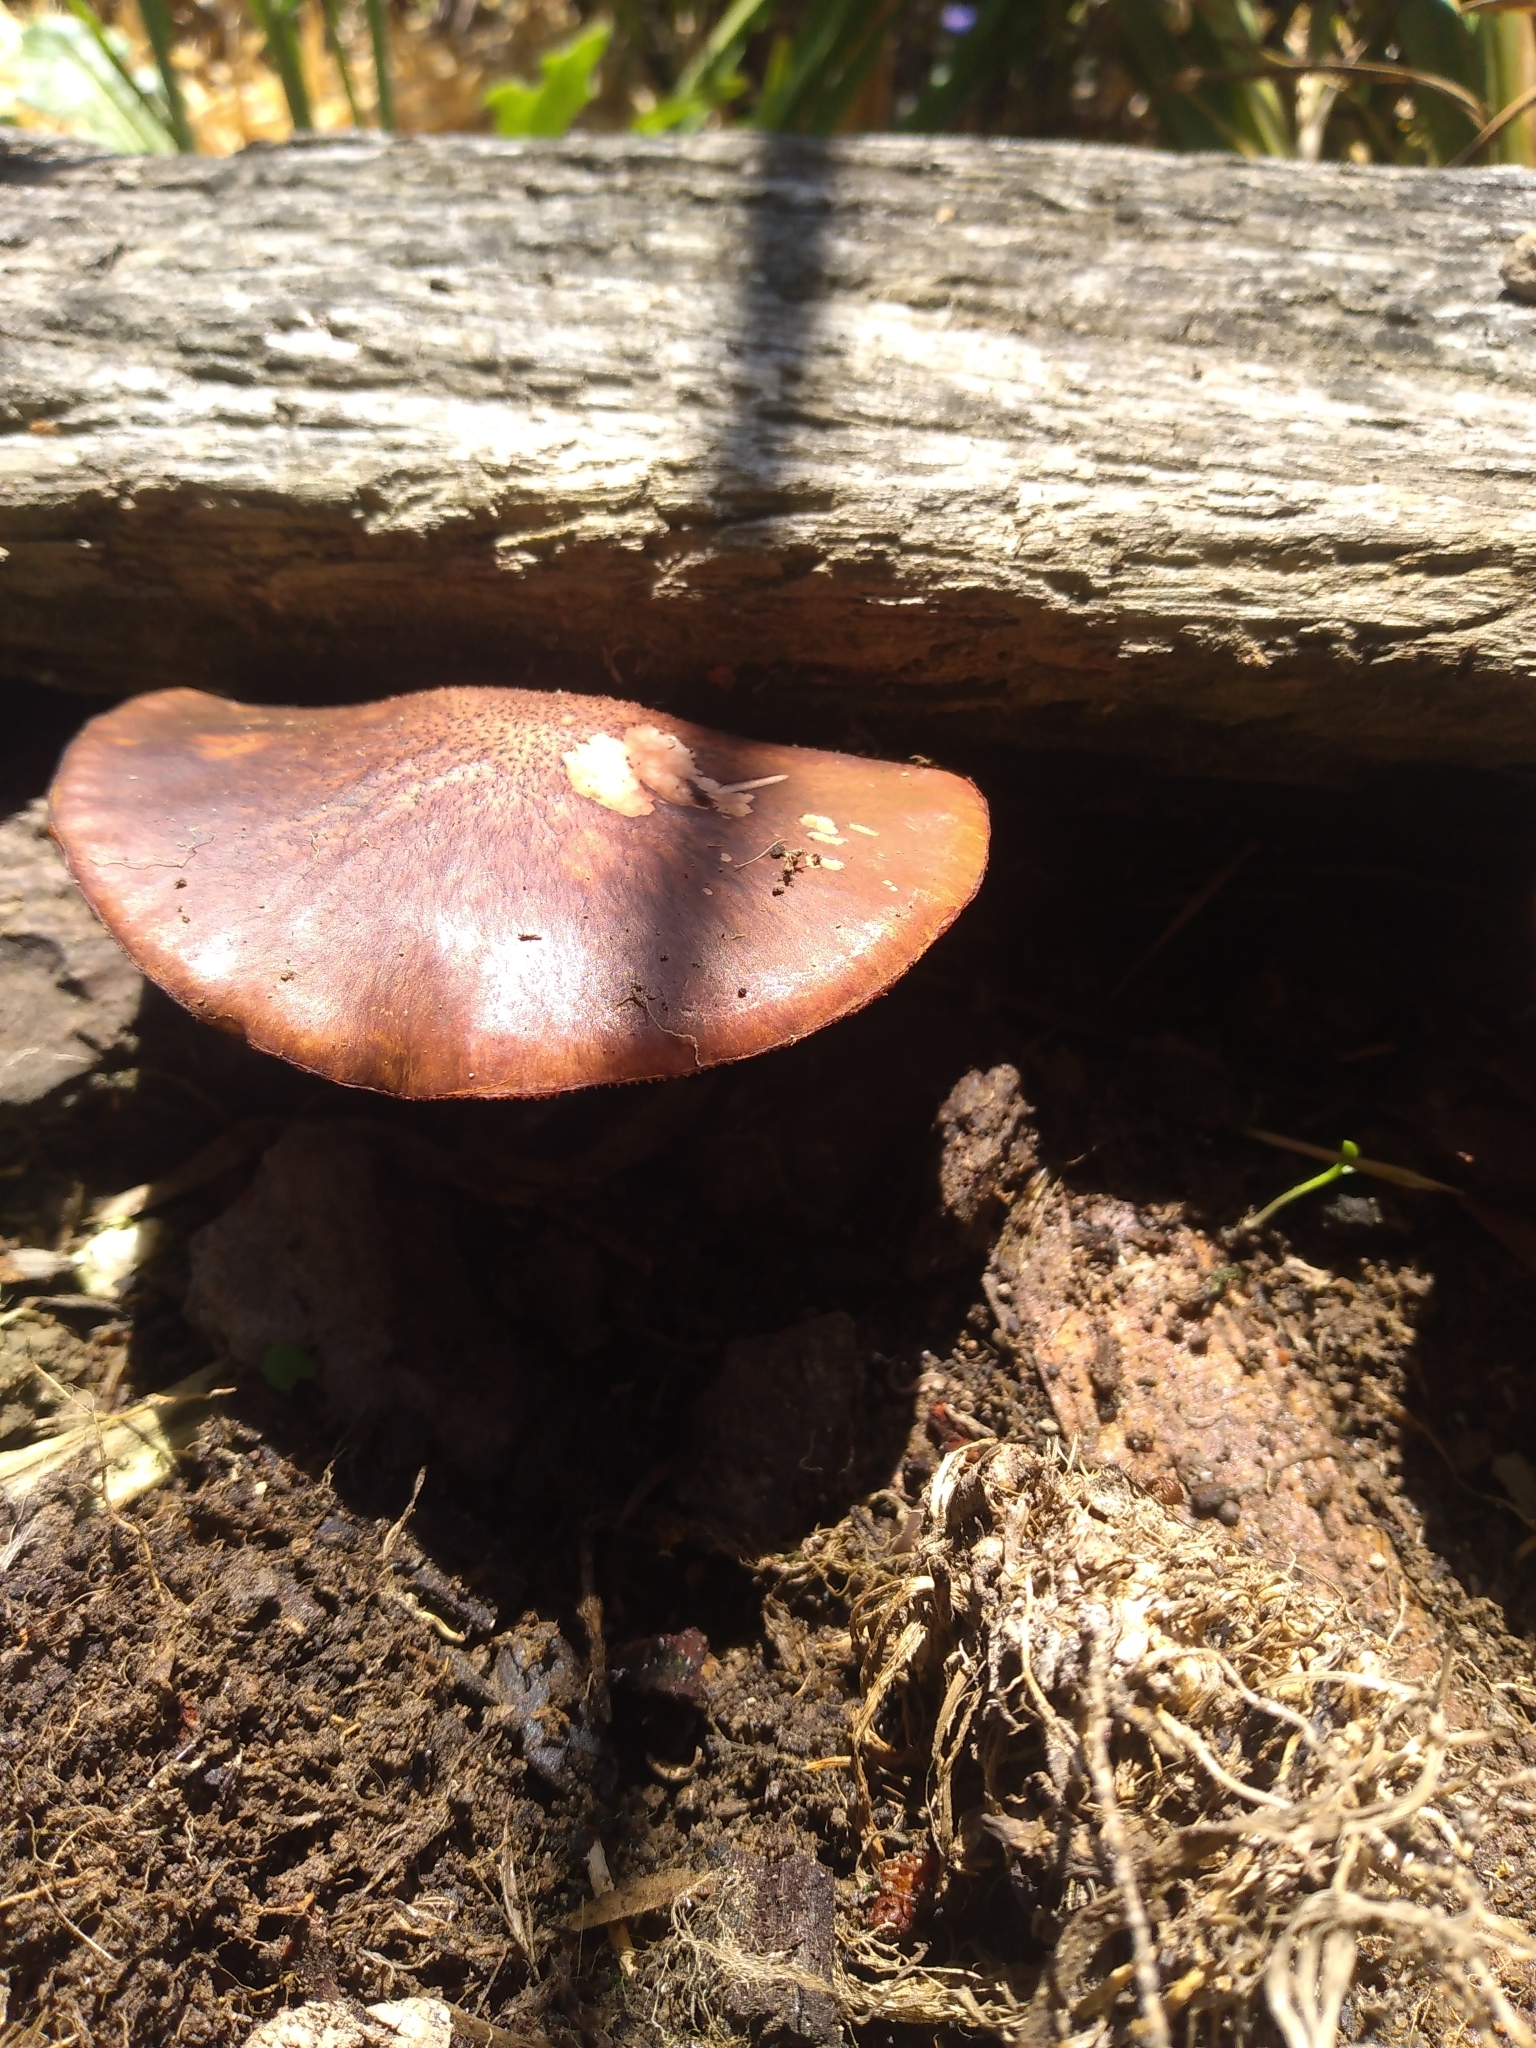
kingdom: Fungi
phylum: Basidiomycota
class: Agaricomycetes
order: Agaricales
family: Hymenogastraceae
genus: Gymnopilus
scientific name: Gymnopilus purpuratus
